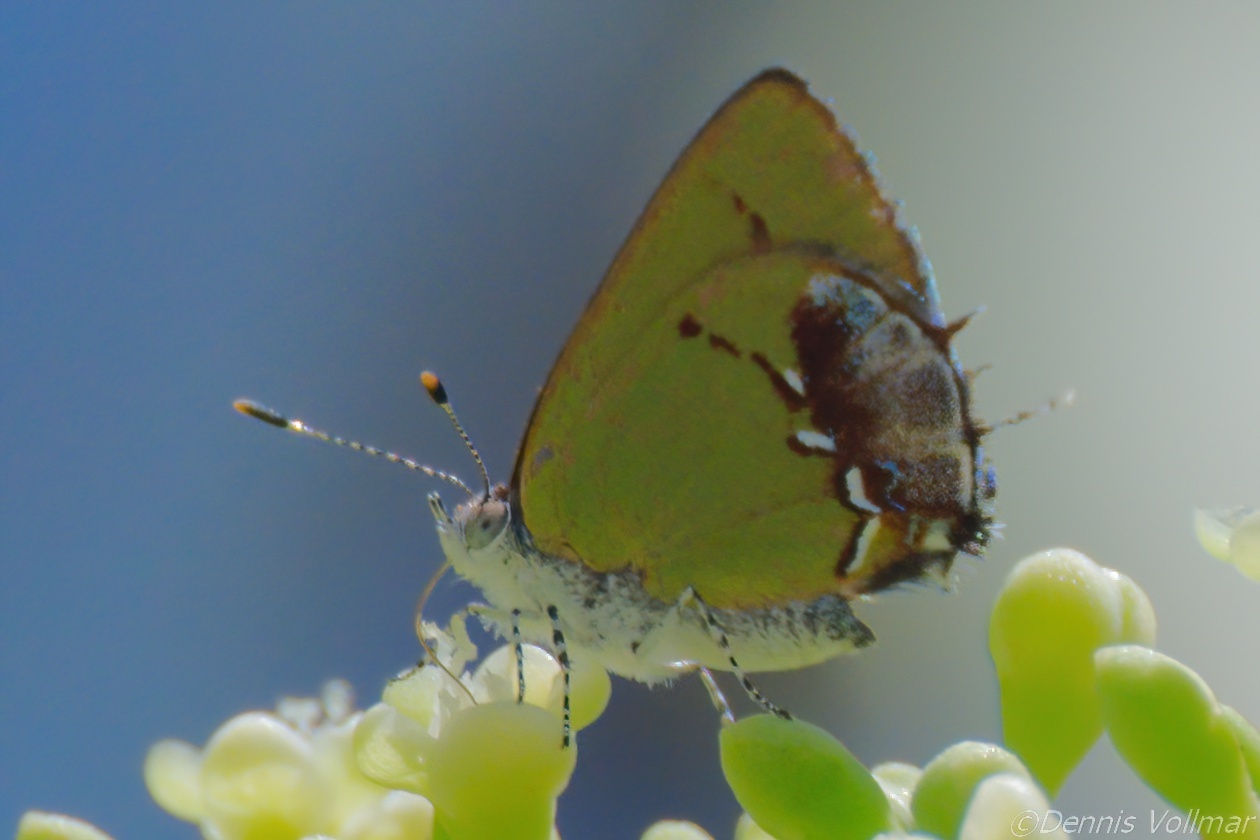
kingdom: Animalia
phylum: Arthropoda
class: Insecta
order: Lepidoptera
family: Lycaenidae
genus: Thecla
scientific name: Thecla maesites
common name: Verde azul hairstreak
